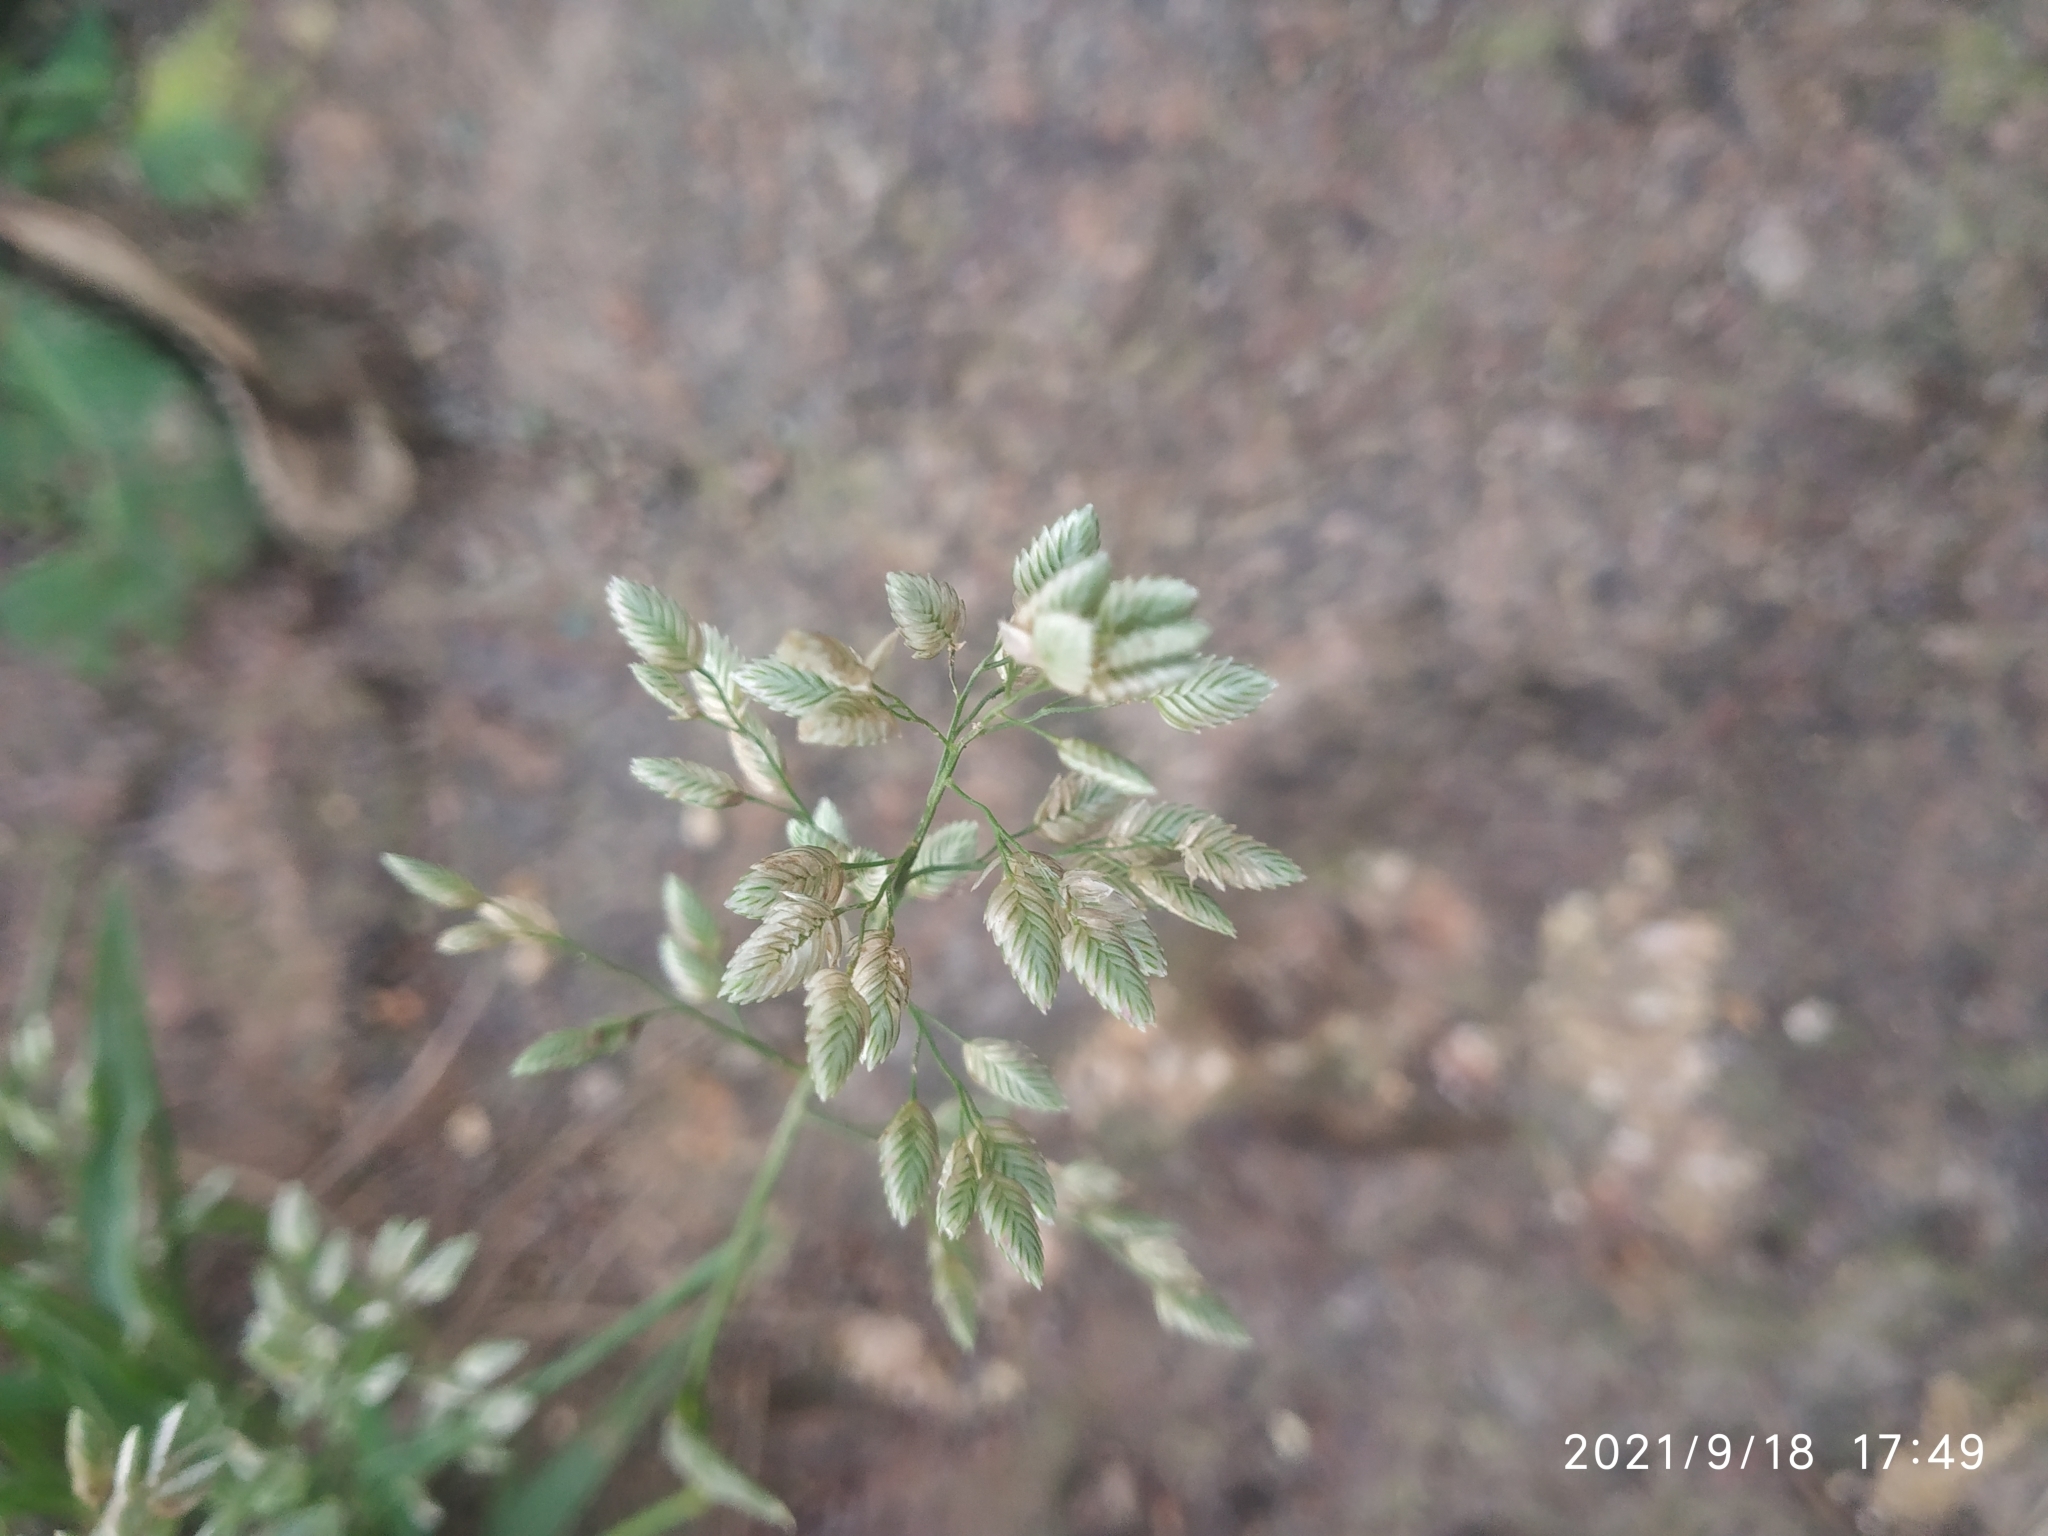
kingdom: Plantae
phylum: Tracheophyta
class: Liliopsida
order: Poales
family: Poaceae
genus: Eragrostis
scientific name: Eragrostis unioloides
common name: Chinese lovegrass
